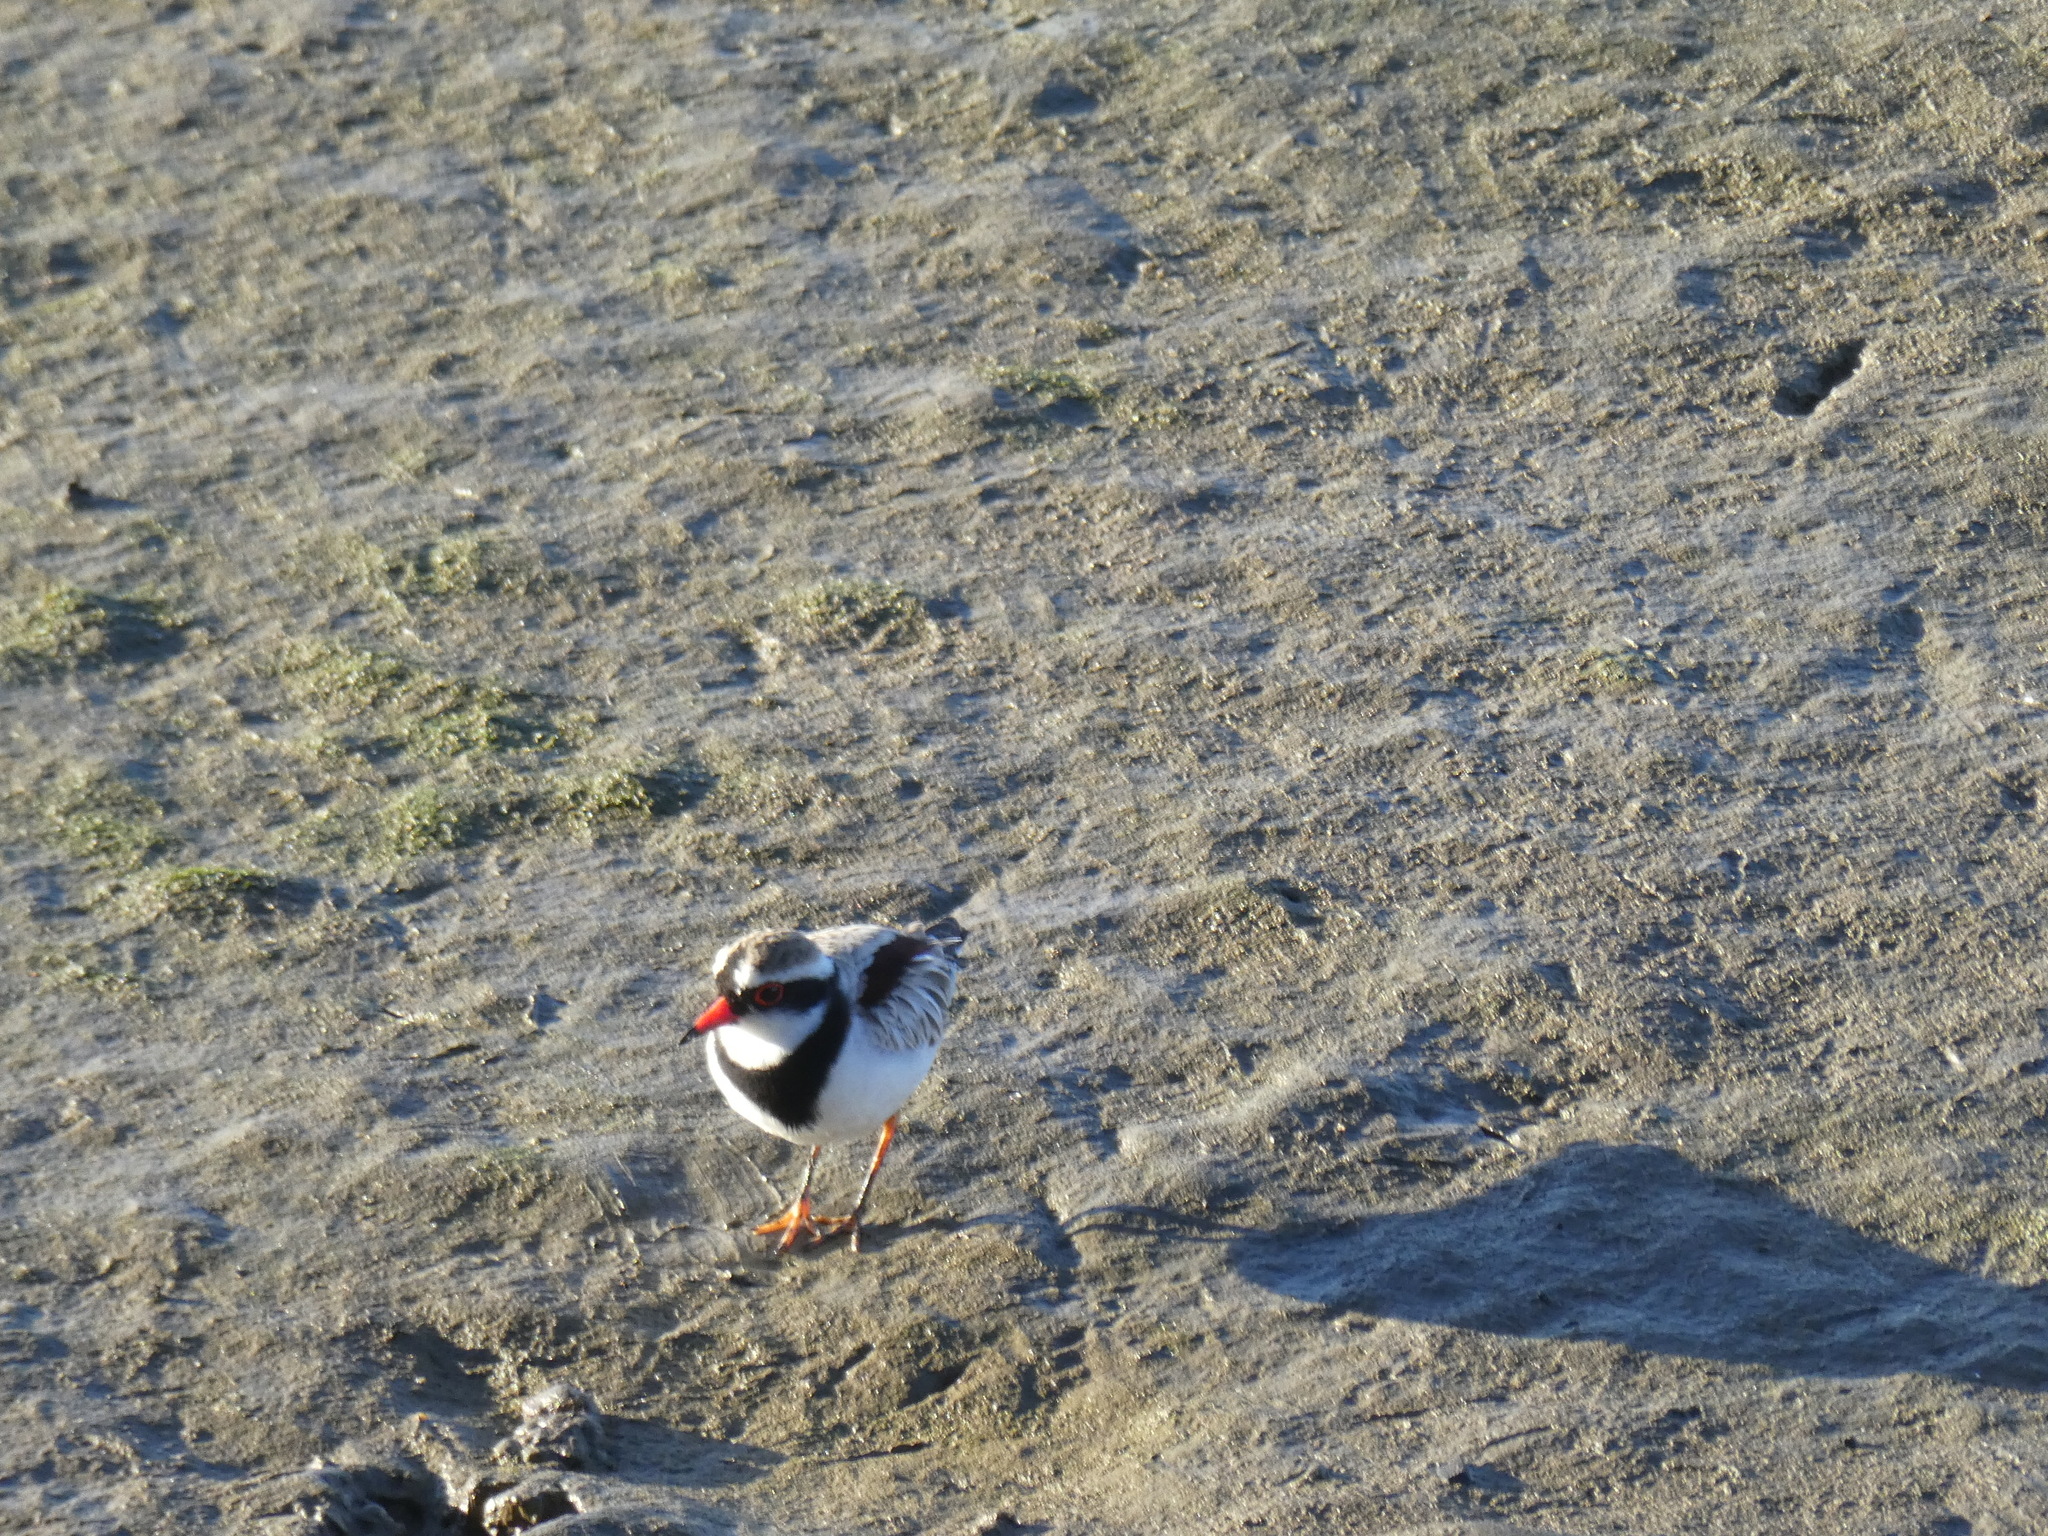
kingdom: Animalia
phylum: Chordata
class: Aves
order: Charadriiformes
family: Charadriidae
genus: Elseyornis
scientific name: Elseyornis melanops
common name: Black-fronted dotterel
